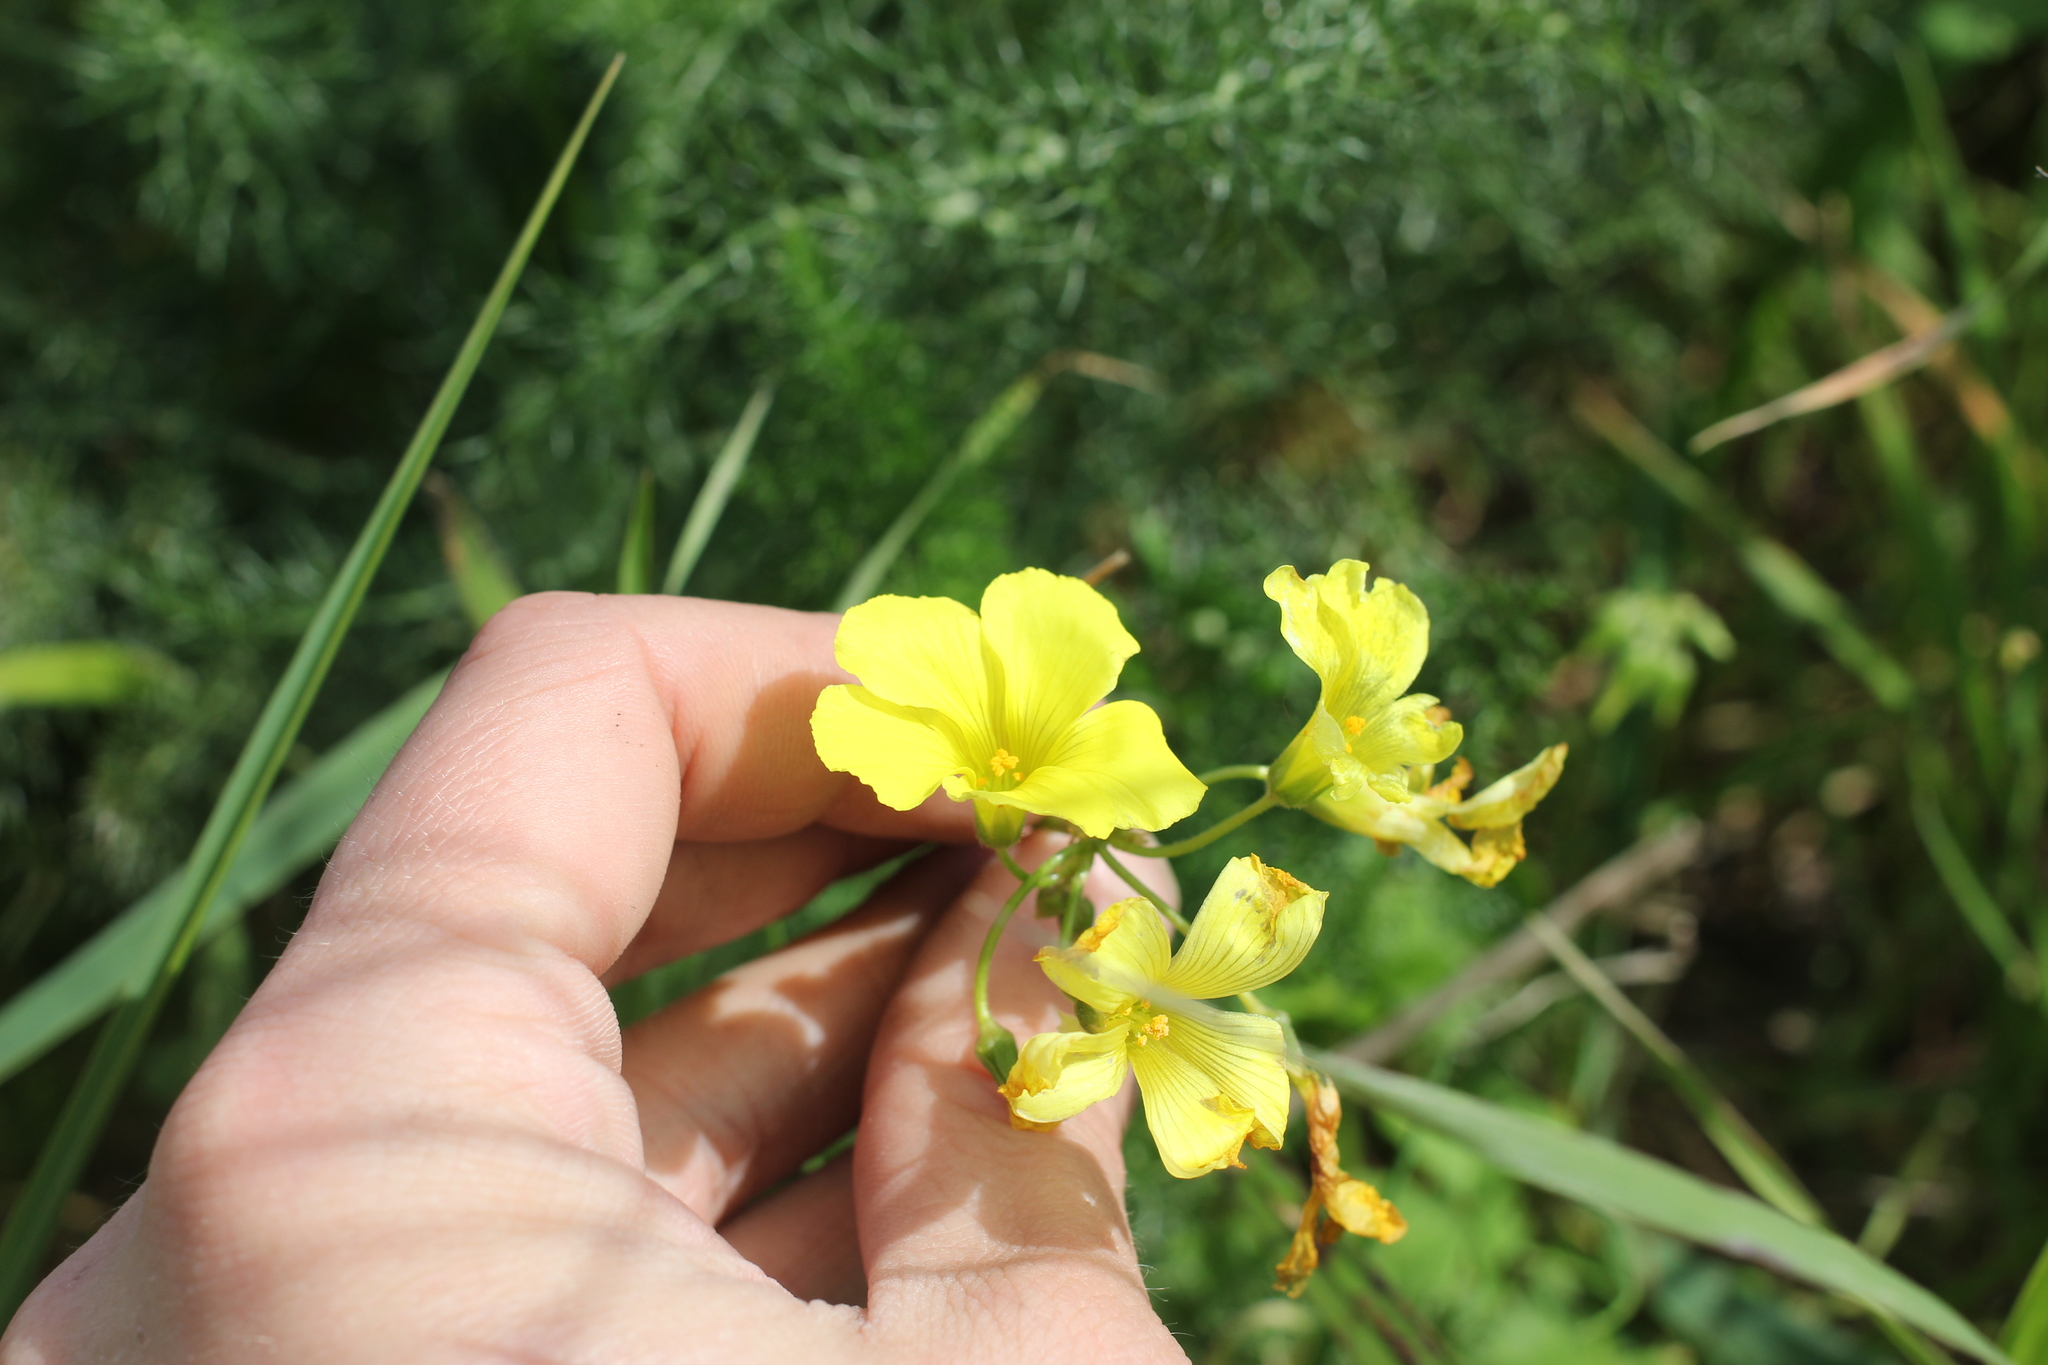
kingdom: Plantae
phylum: Tracheophyta
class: Magnoliopsida
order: Oxalidales
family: Oxalidaceae
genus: Oxalis
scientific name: Oxalis pes-caprae
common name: Bermuda-buttercup
